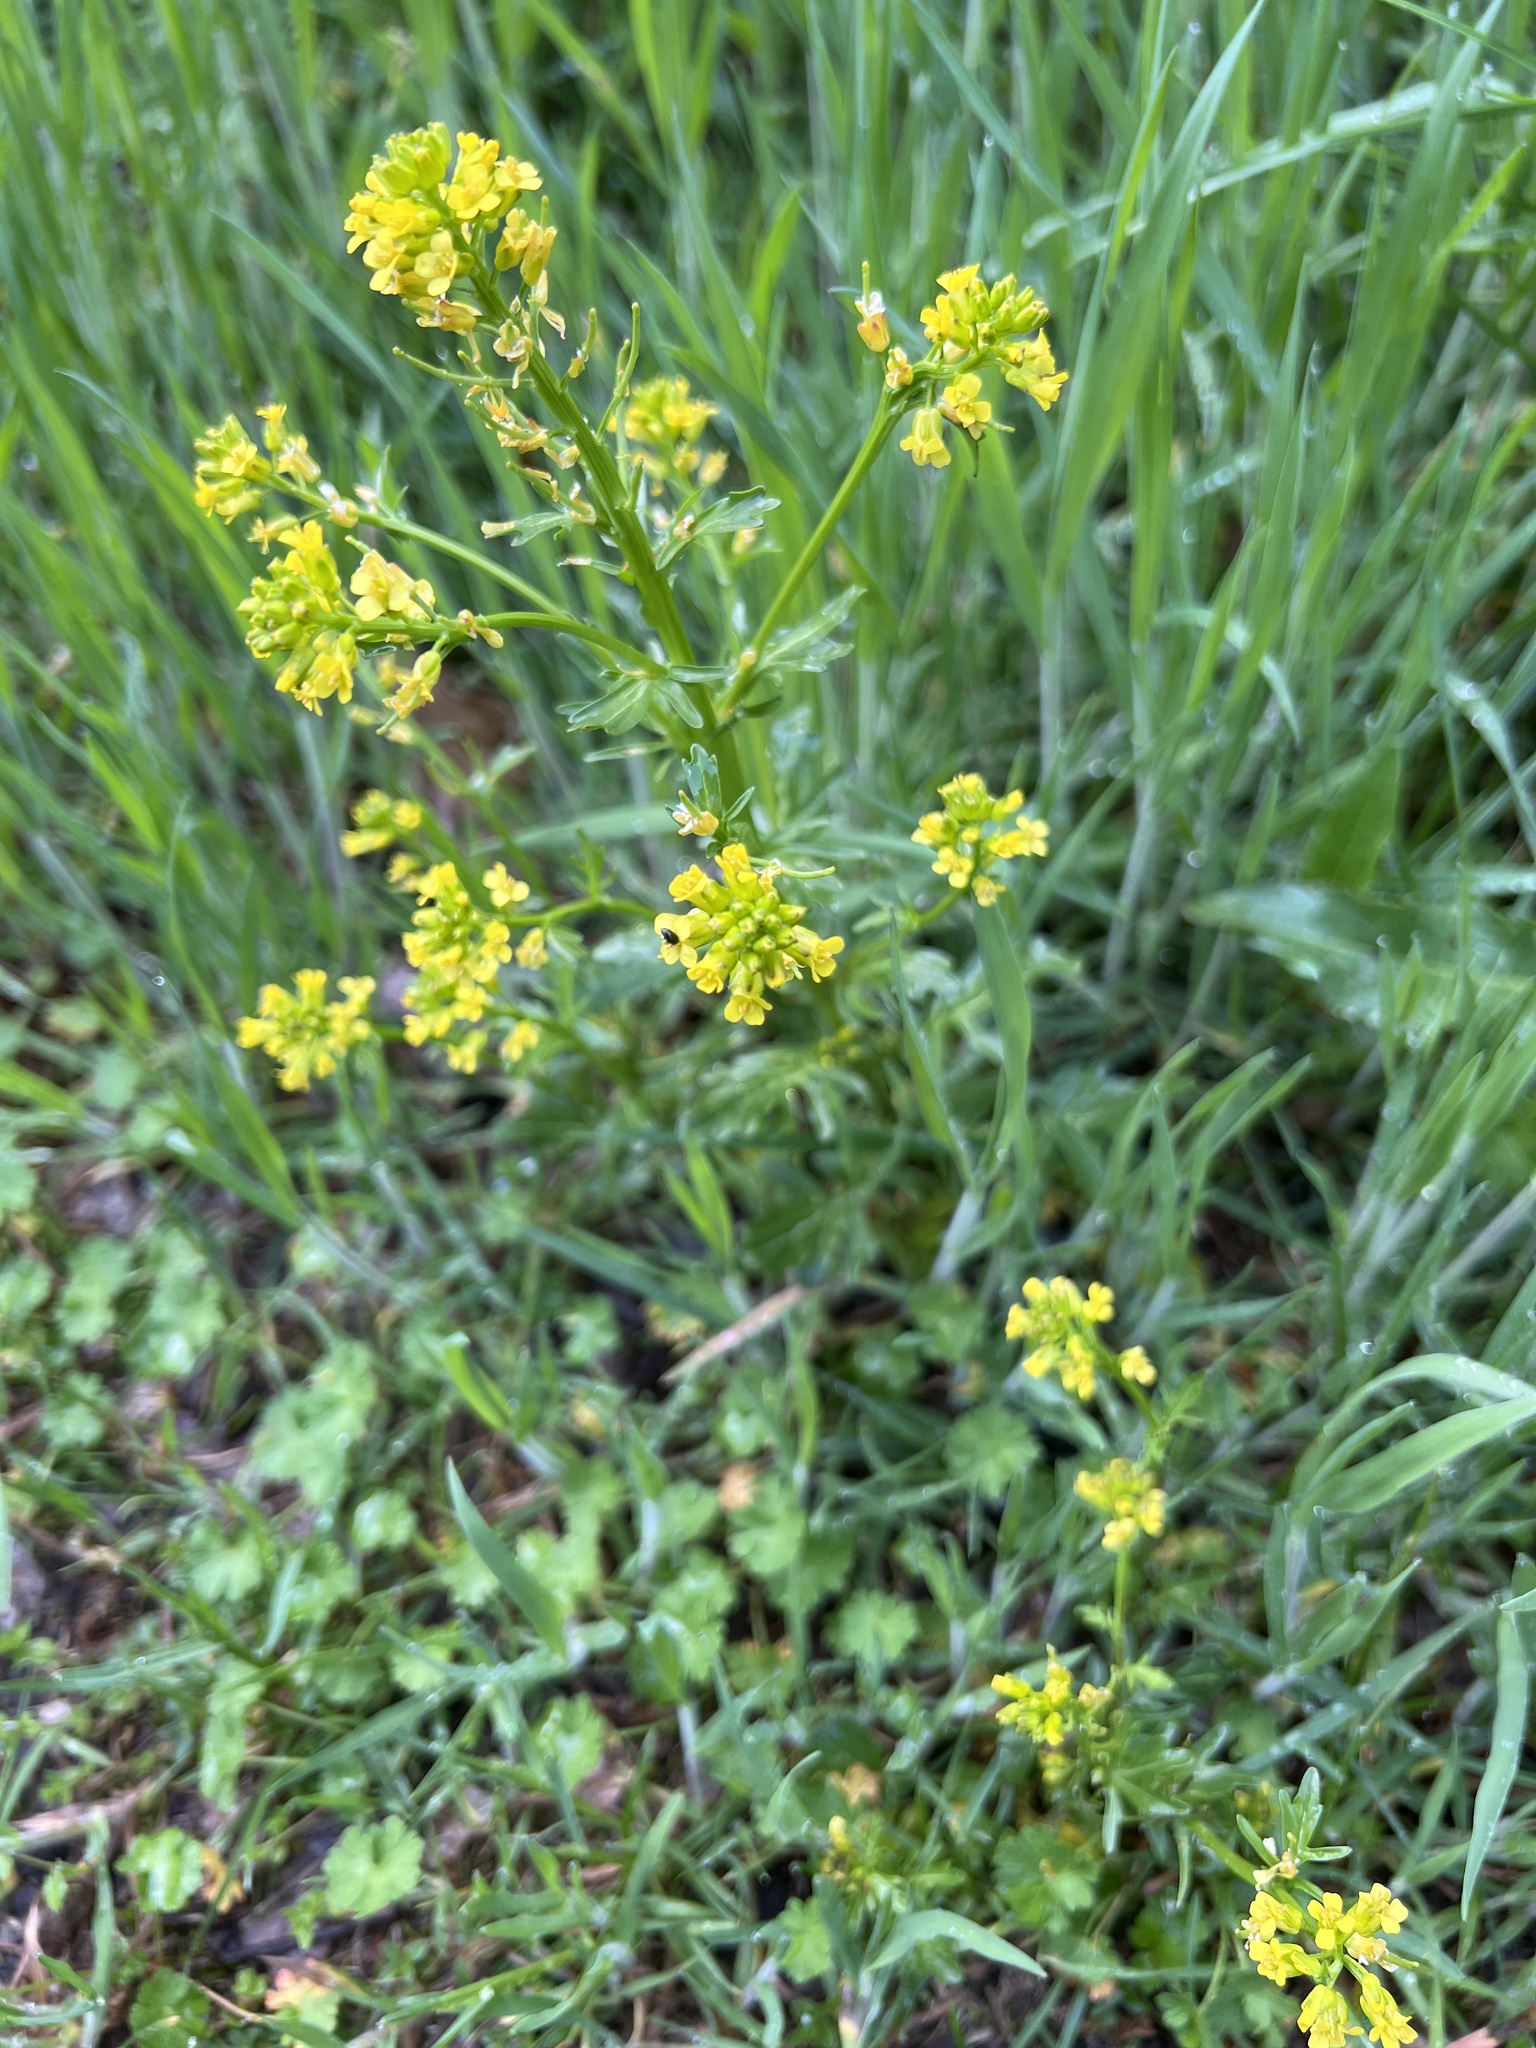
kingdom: Plantae
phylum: Tracheophyta
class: Magnoliopsida
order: Brassicales
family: Brassicaceae
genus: Barbarea
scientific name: Barbarea vulgaris
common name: Cressy-greens
